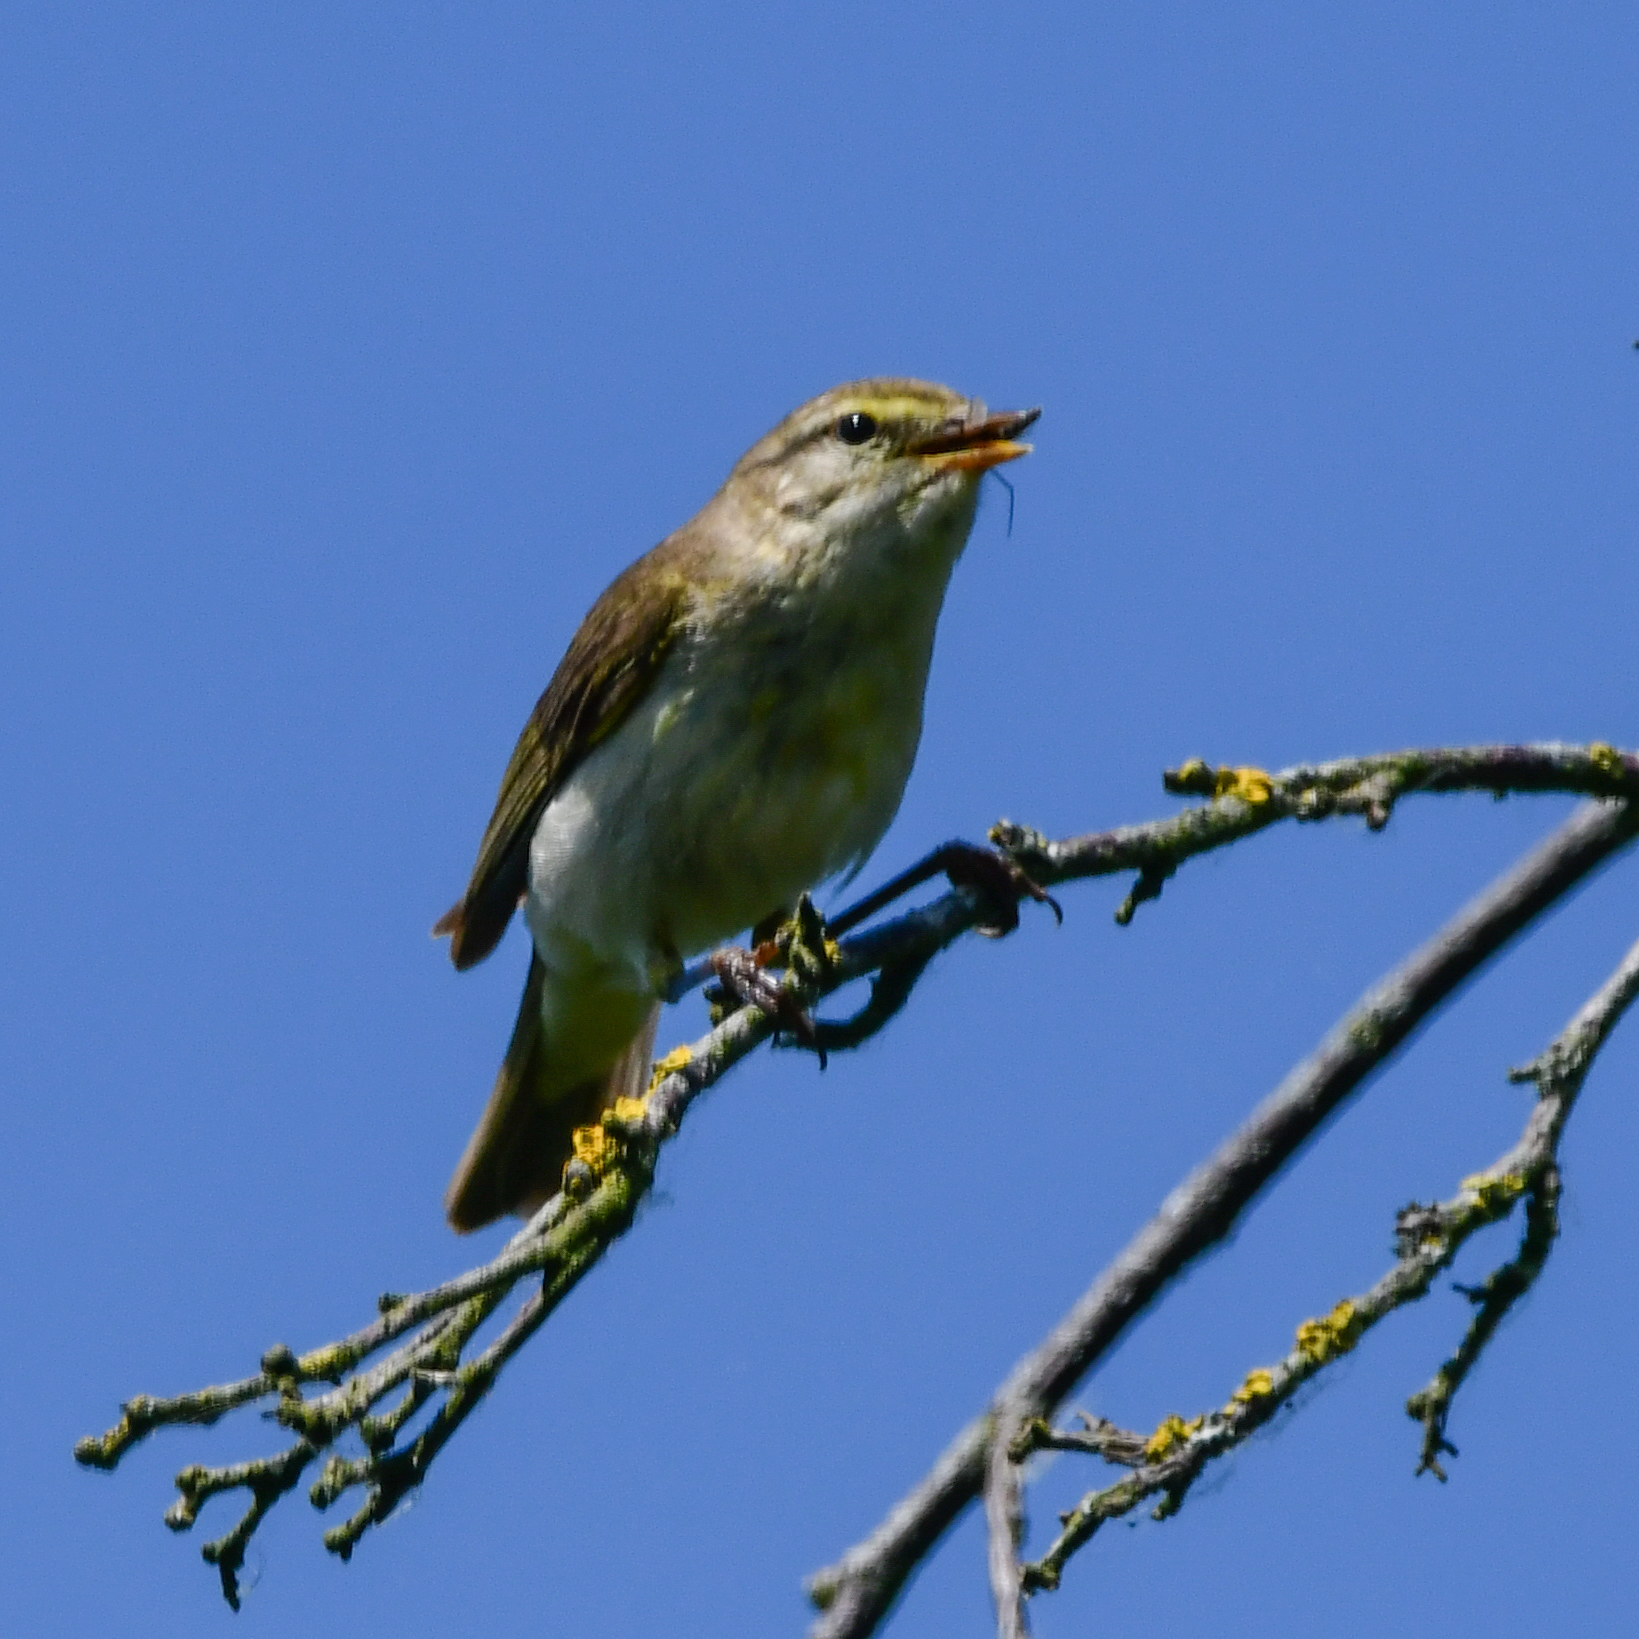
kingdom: Animalia
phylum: Chordata
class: Aves
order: Passeriformes
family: Phylloscopidae
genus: Phylloscopus
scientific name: Phylloscopus trochilus
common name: Willow warbler
